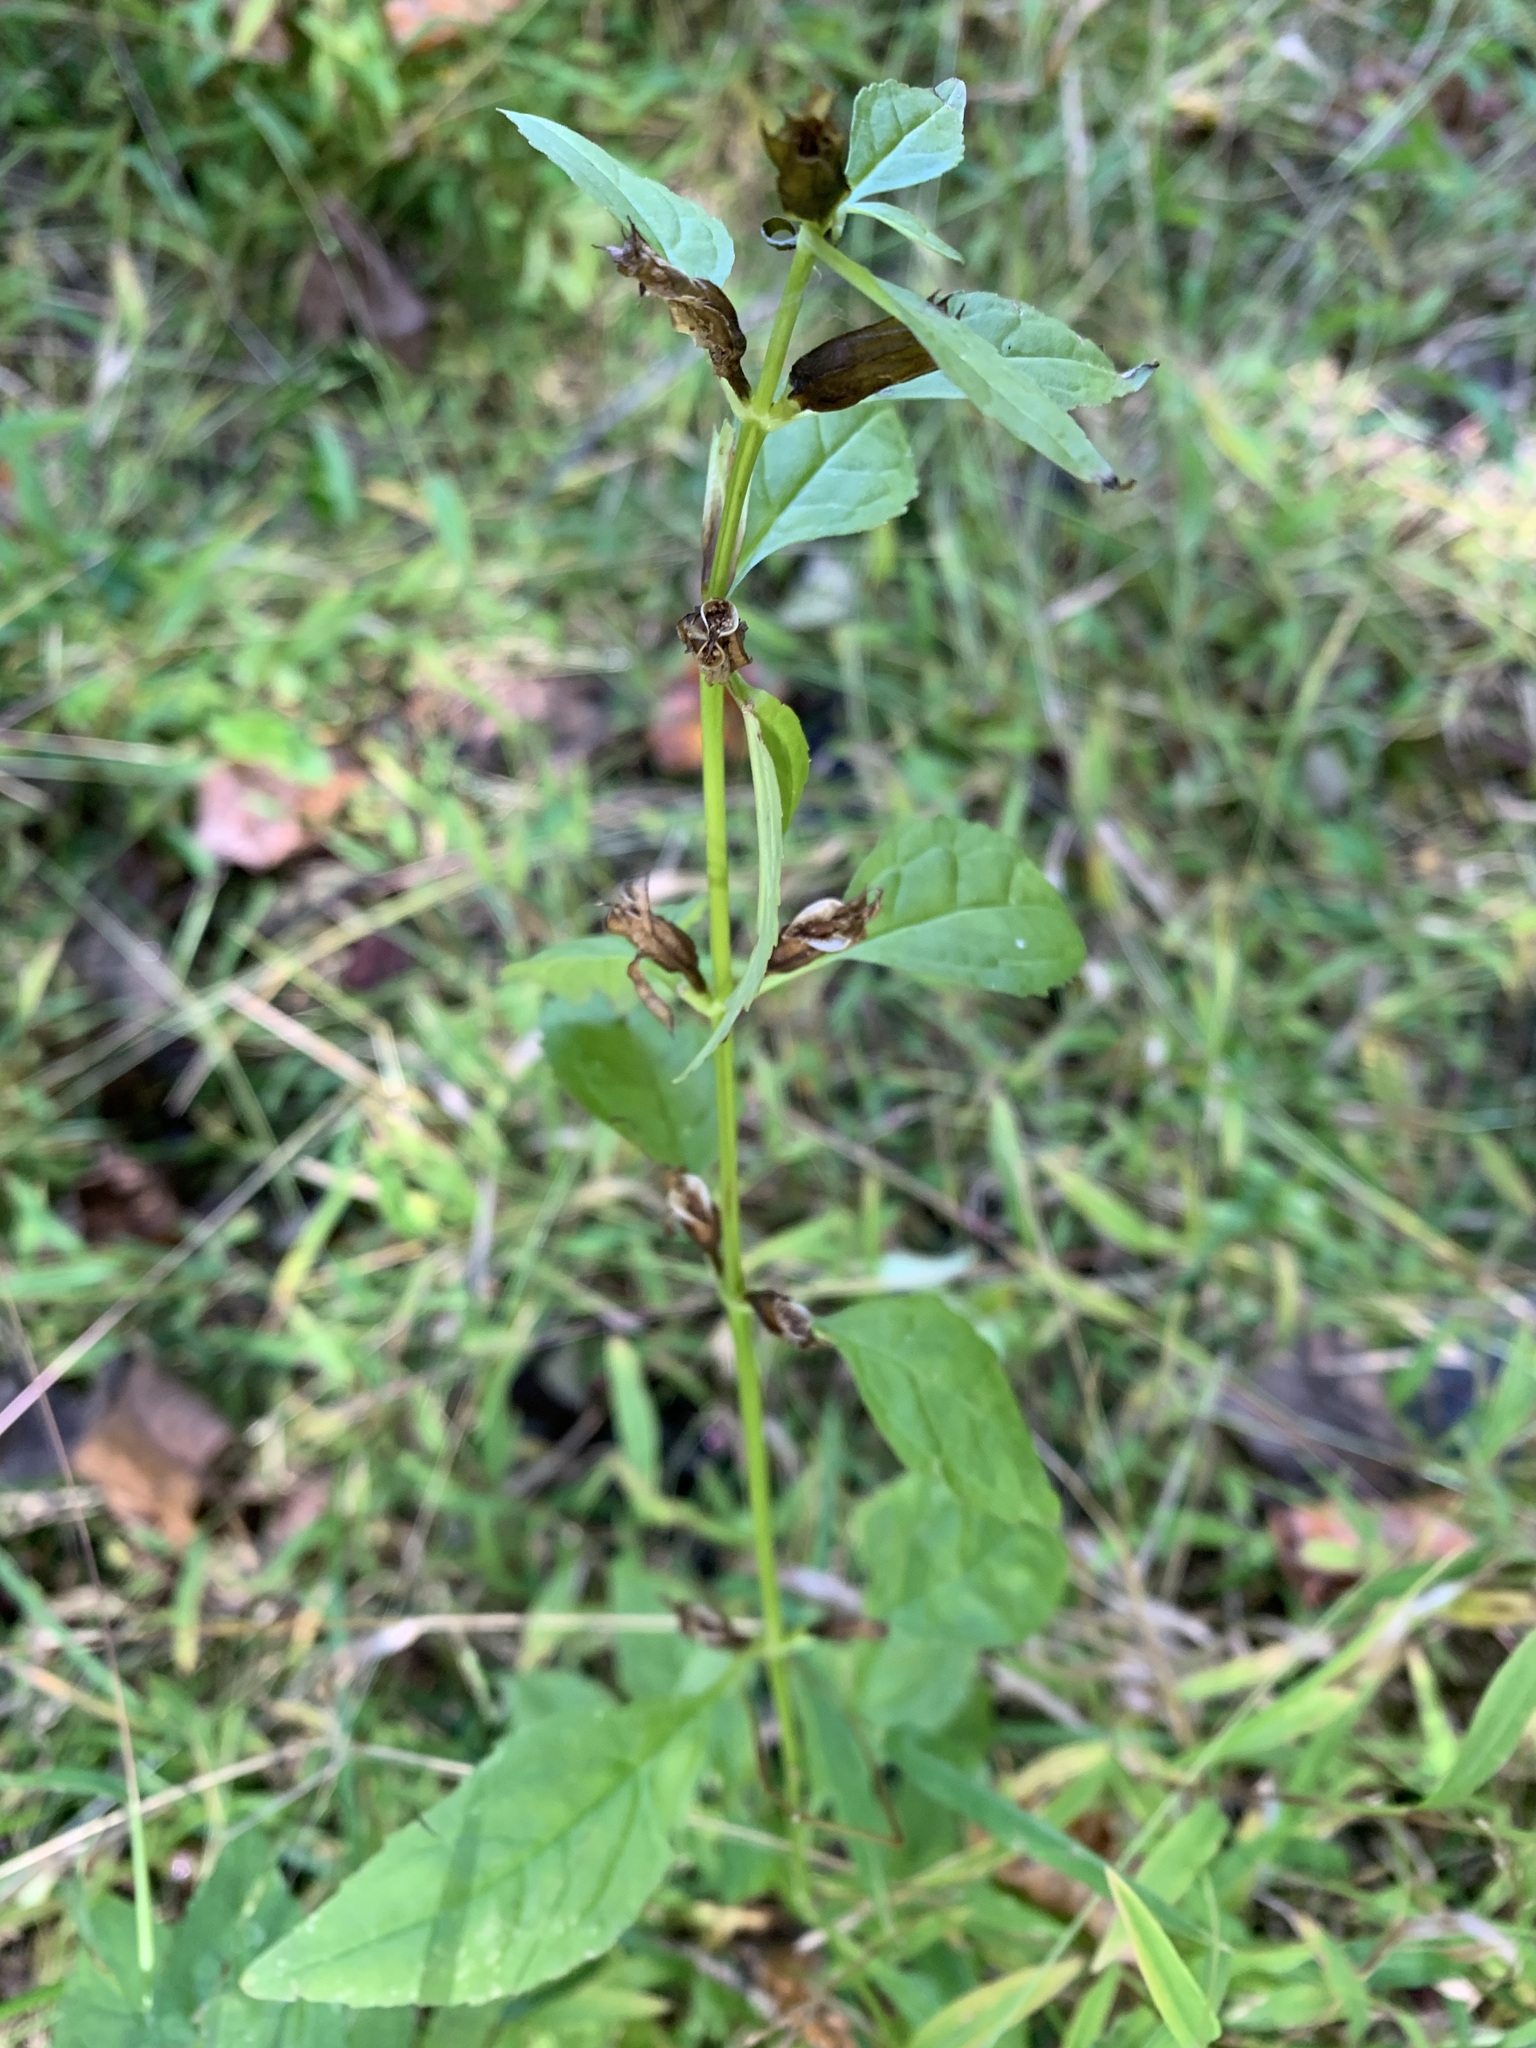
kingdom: Plantae
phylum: Tracheophyta
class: Magnoliopsida
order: Lamiales
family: Phrymaceae
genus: Mimulus
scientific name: Mimulus alatus
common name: Sharp-wing monkey-flower
